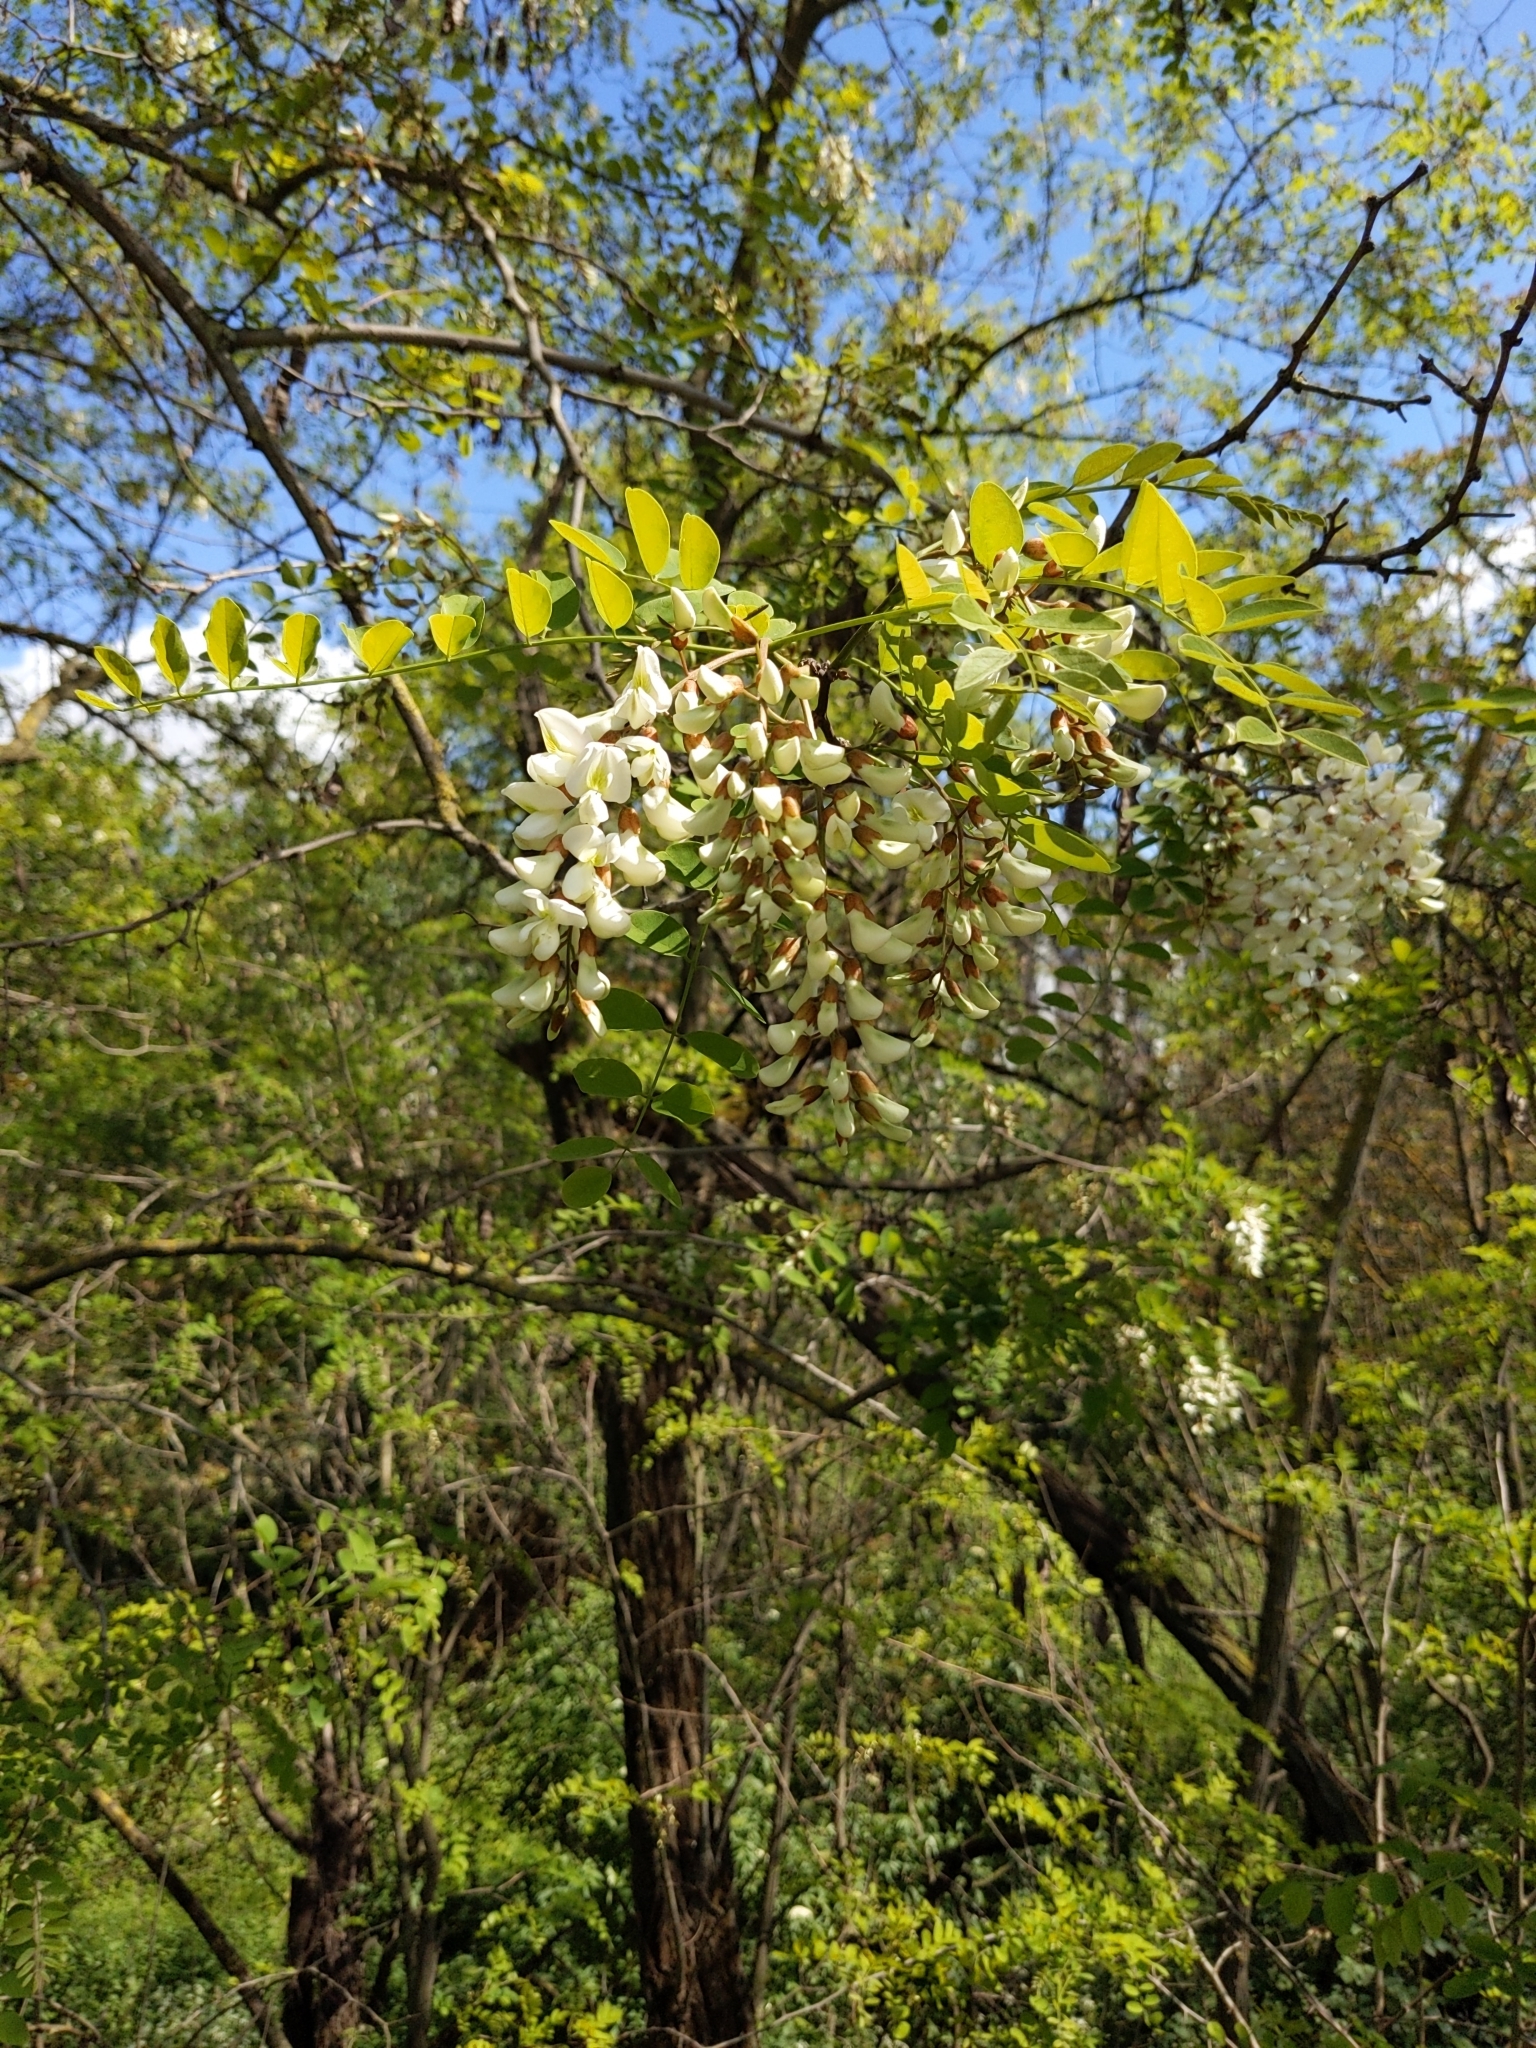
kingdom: Plantae
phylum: Tracheophyta
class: Magnoliopsida
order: Fabales
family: Fabaceae
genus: Robinia
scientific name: Robinia pseudoacacia
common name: Black locust
